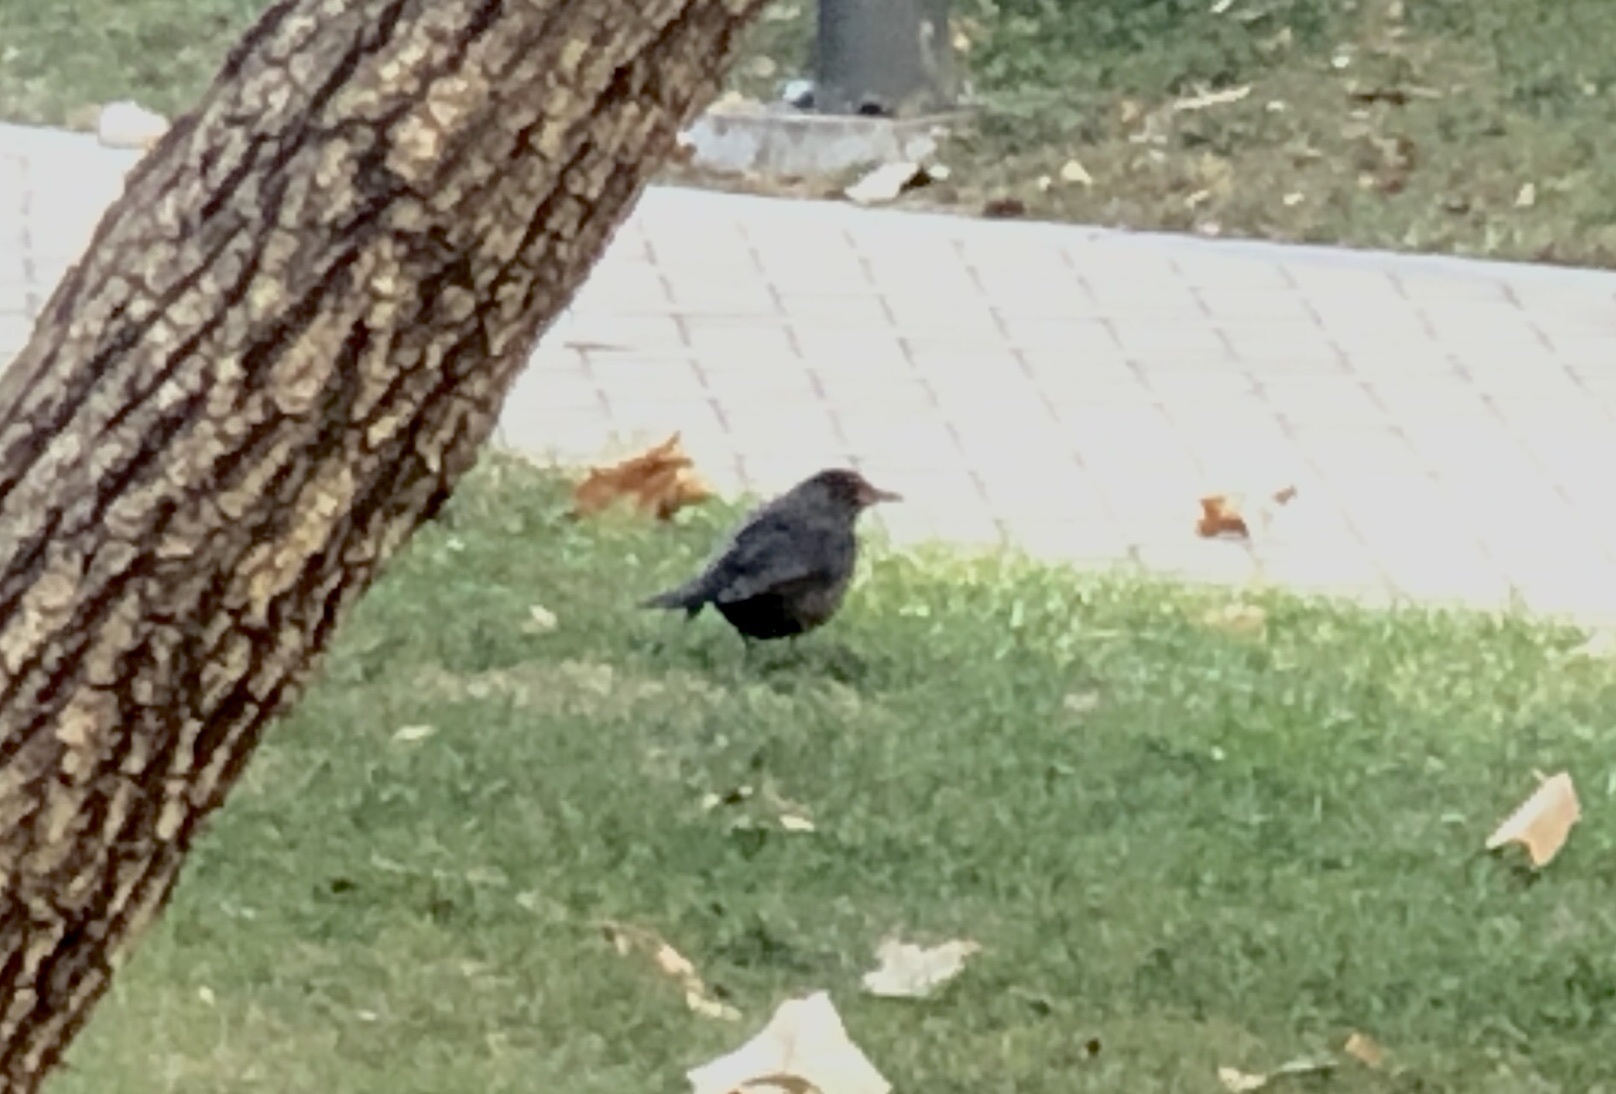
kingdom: Animalia
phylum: Chordata
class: Aves
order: Passeriformes
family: Turdidae
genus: Turdus
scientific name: Turdus mandarinus
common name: Chinese blackbird
